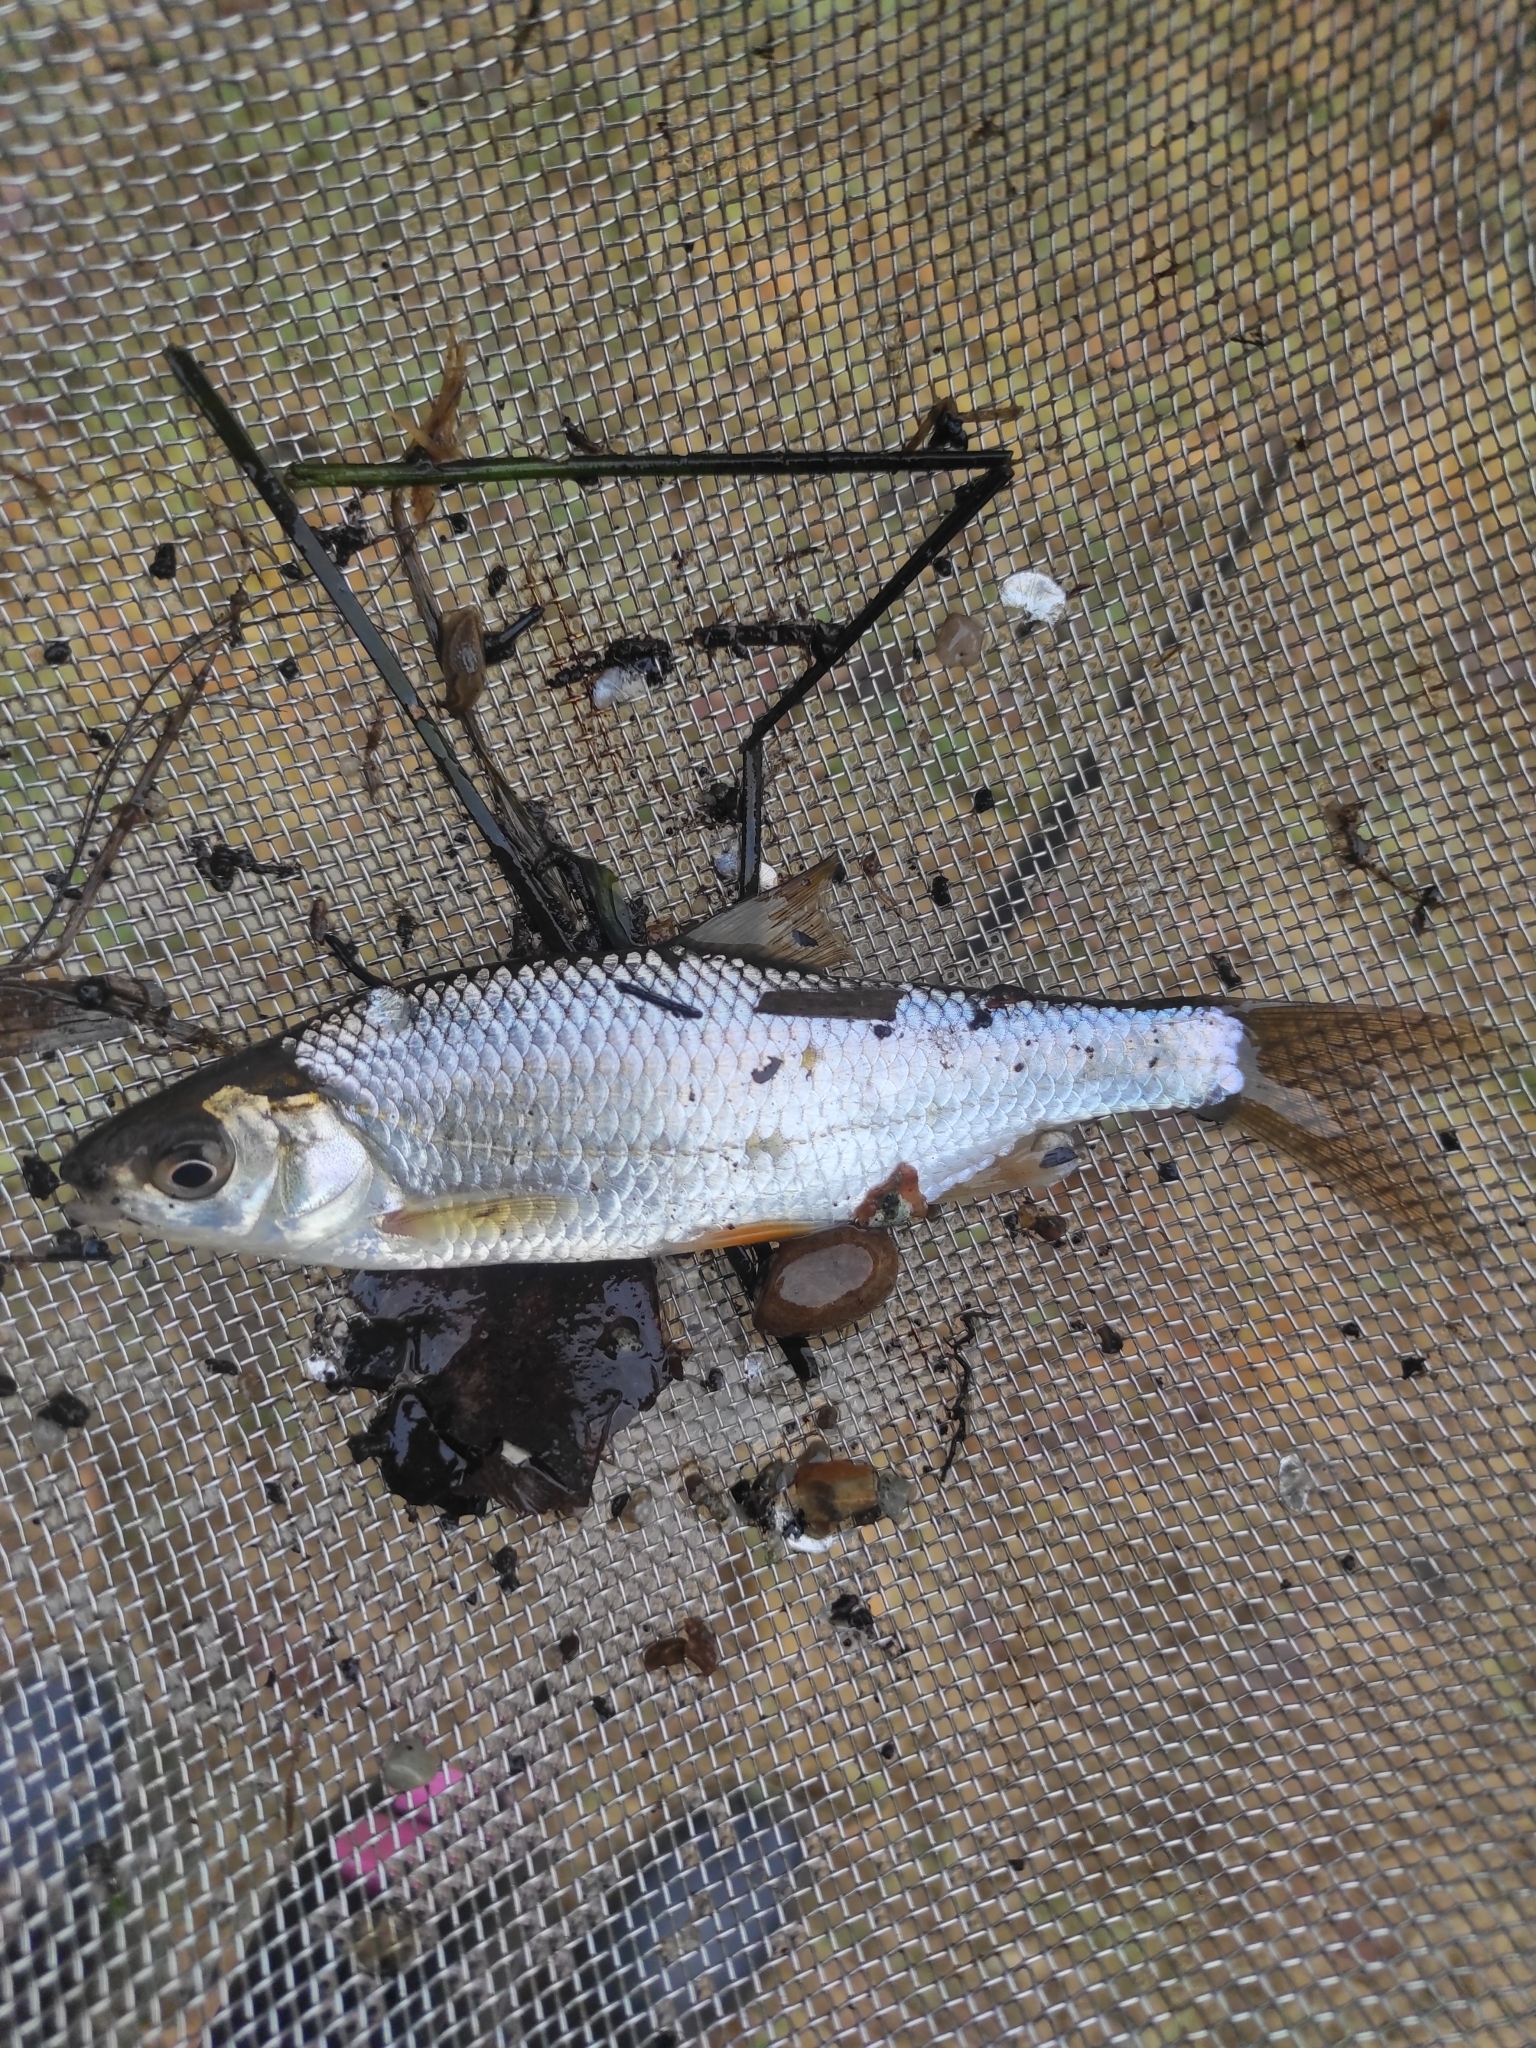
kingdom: Animalia
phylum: Chordata
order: Cypriniformes
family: Cyprinidae
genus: Rutilus
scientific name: Rutilus rutilus
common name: Roach
